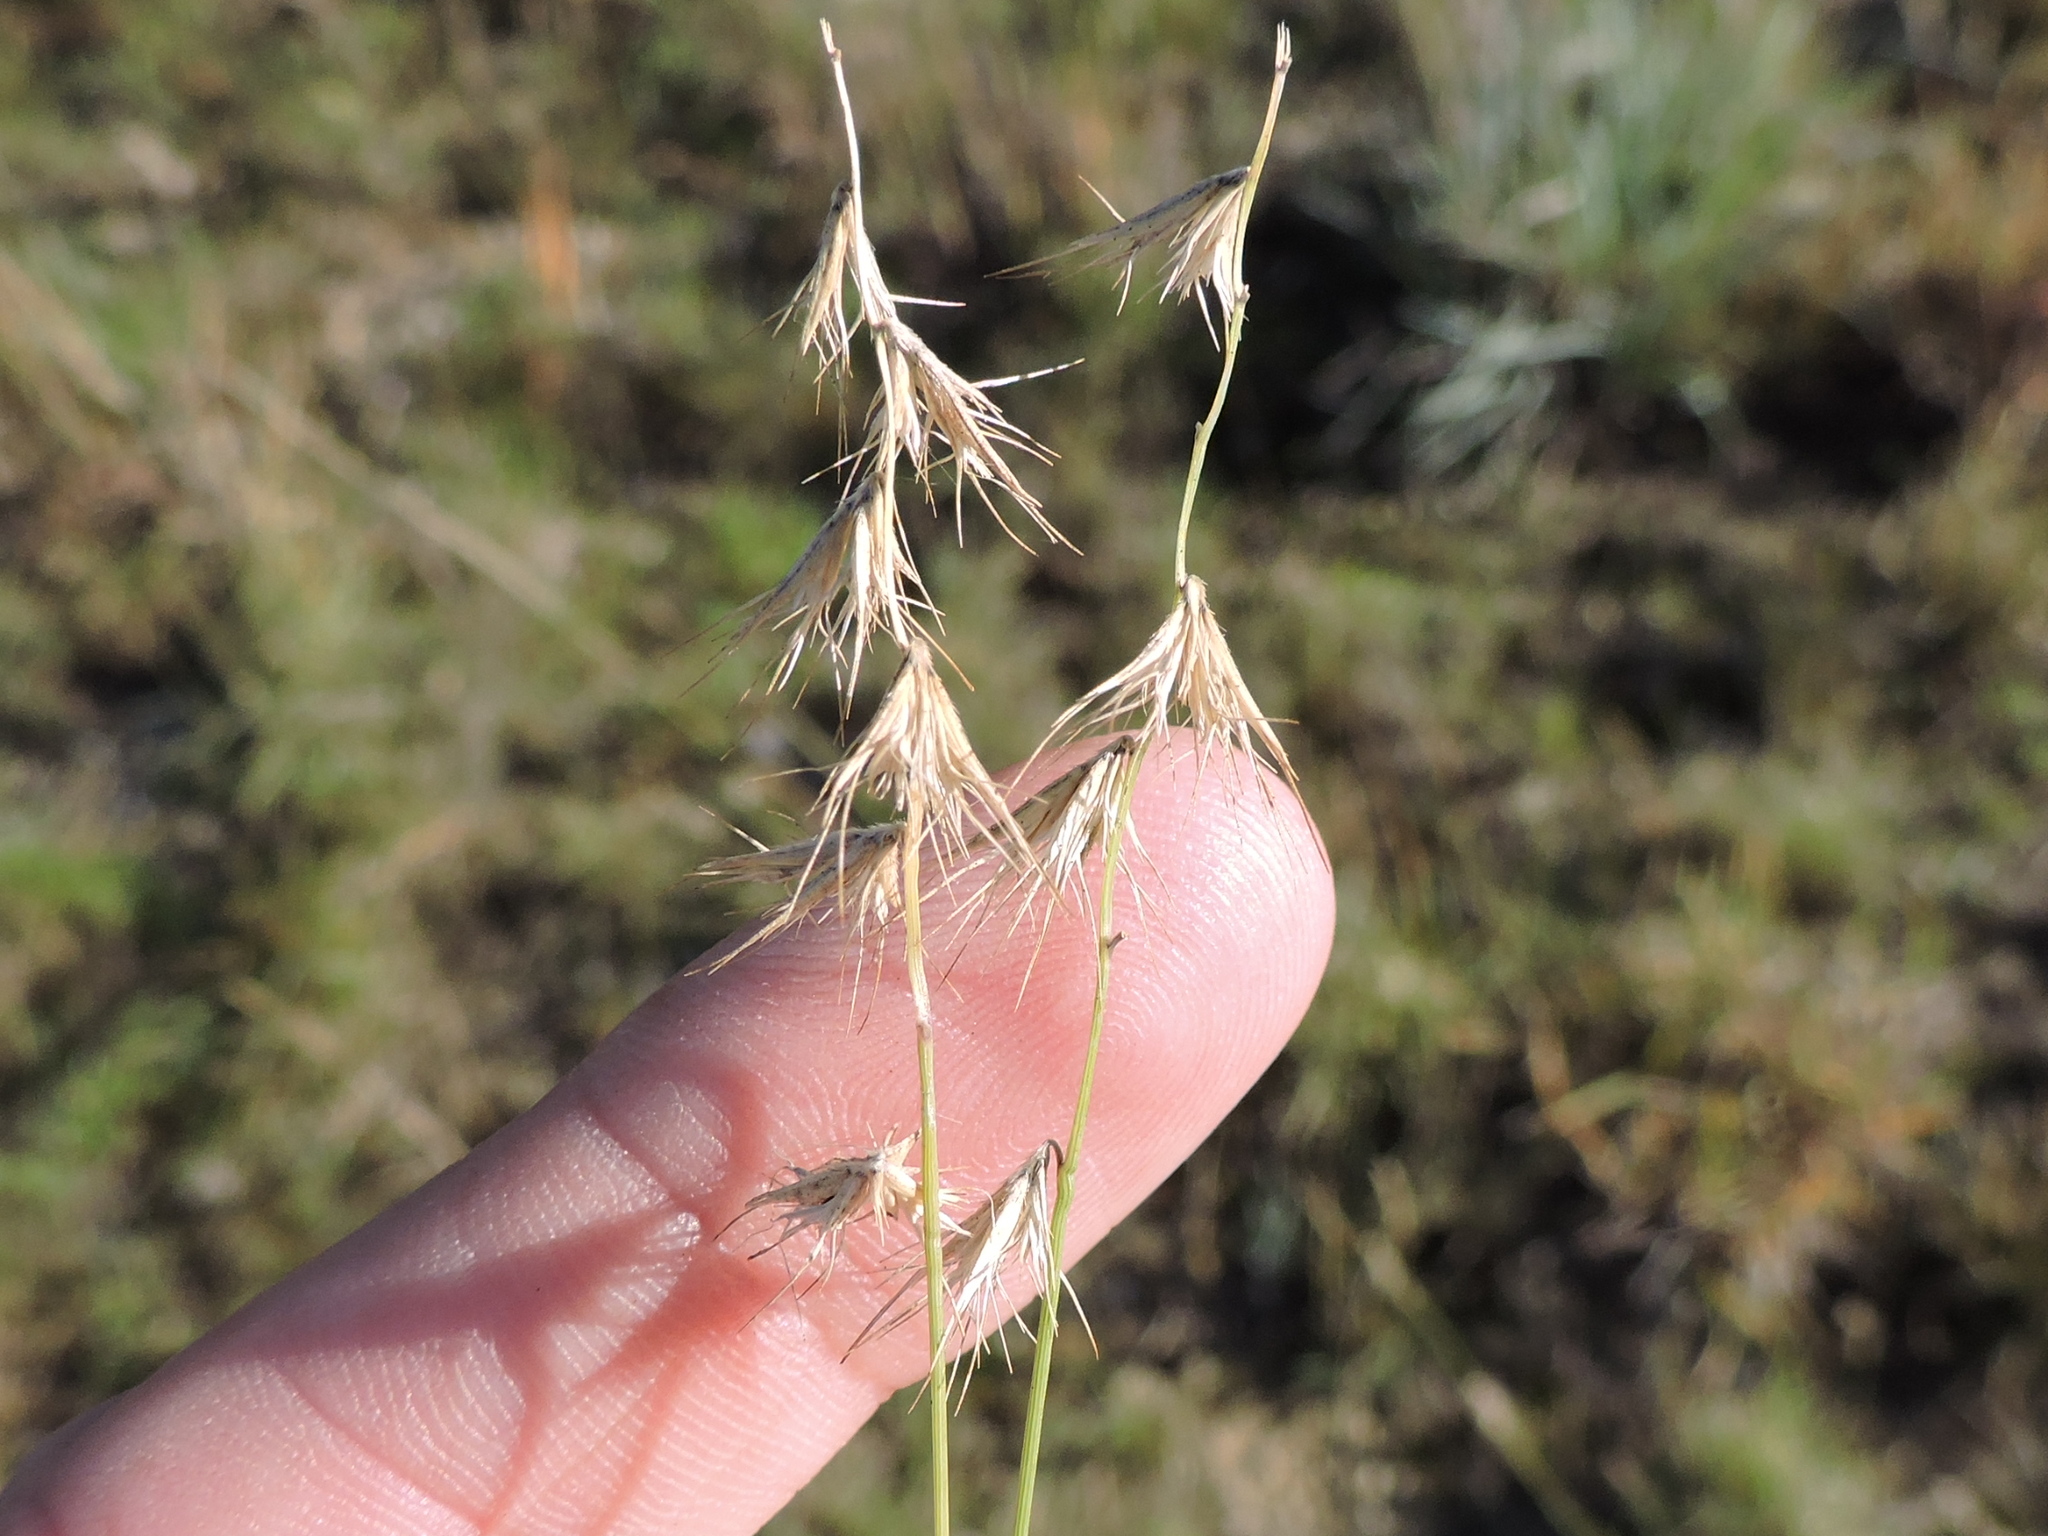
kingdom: Plantae
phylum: Tracheophyta
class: Liliopsida
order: Poales
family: Poaceae
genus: Bouteloua
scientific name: Bouteloua rigidiseta
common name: Texas grama
